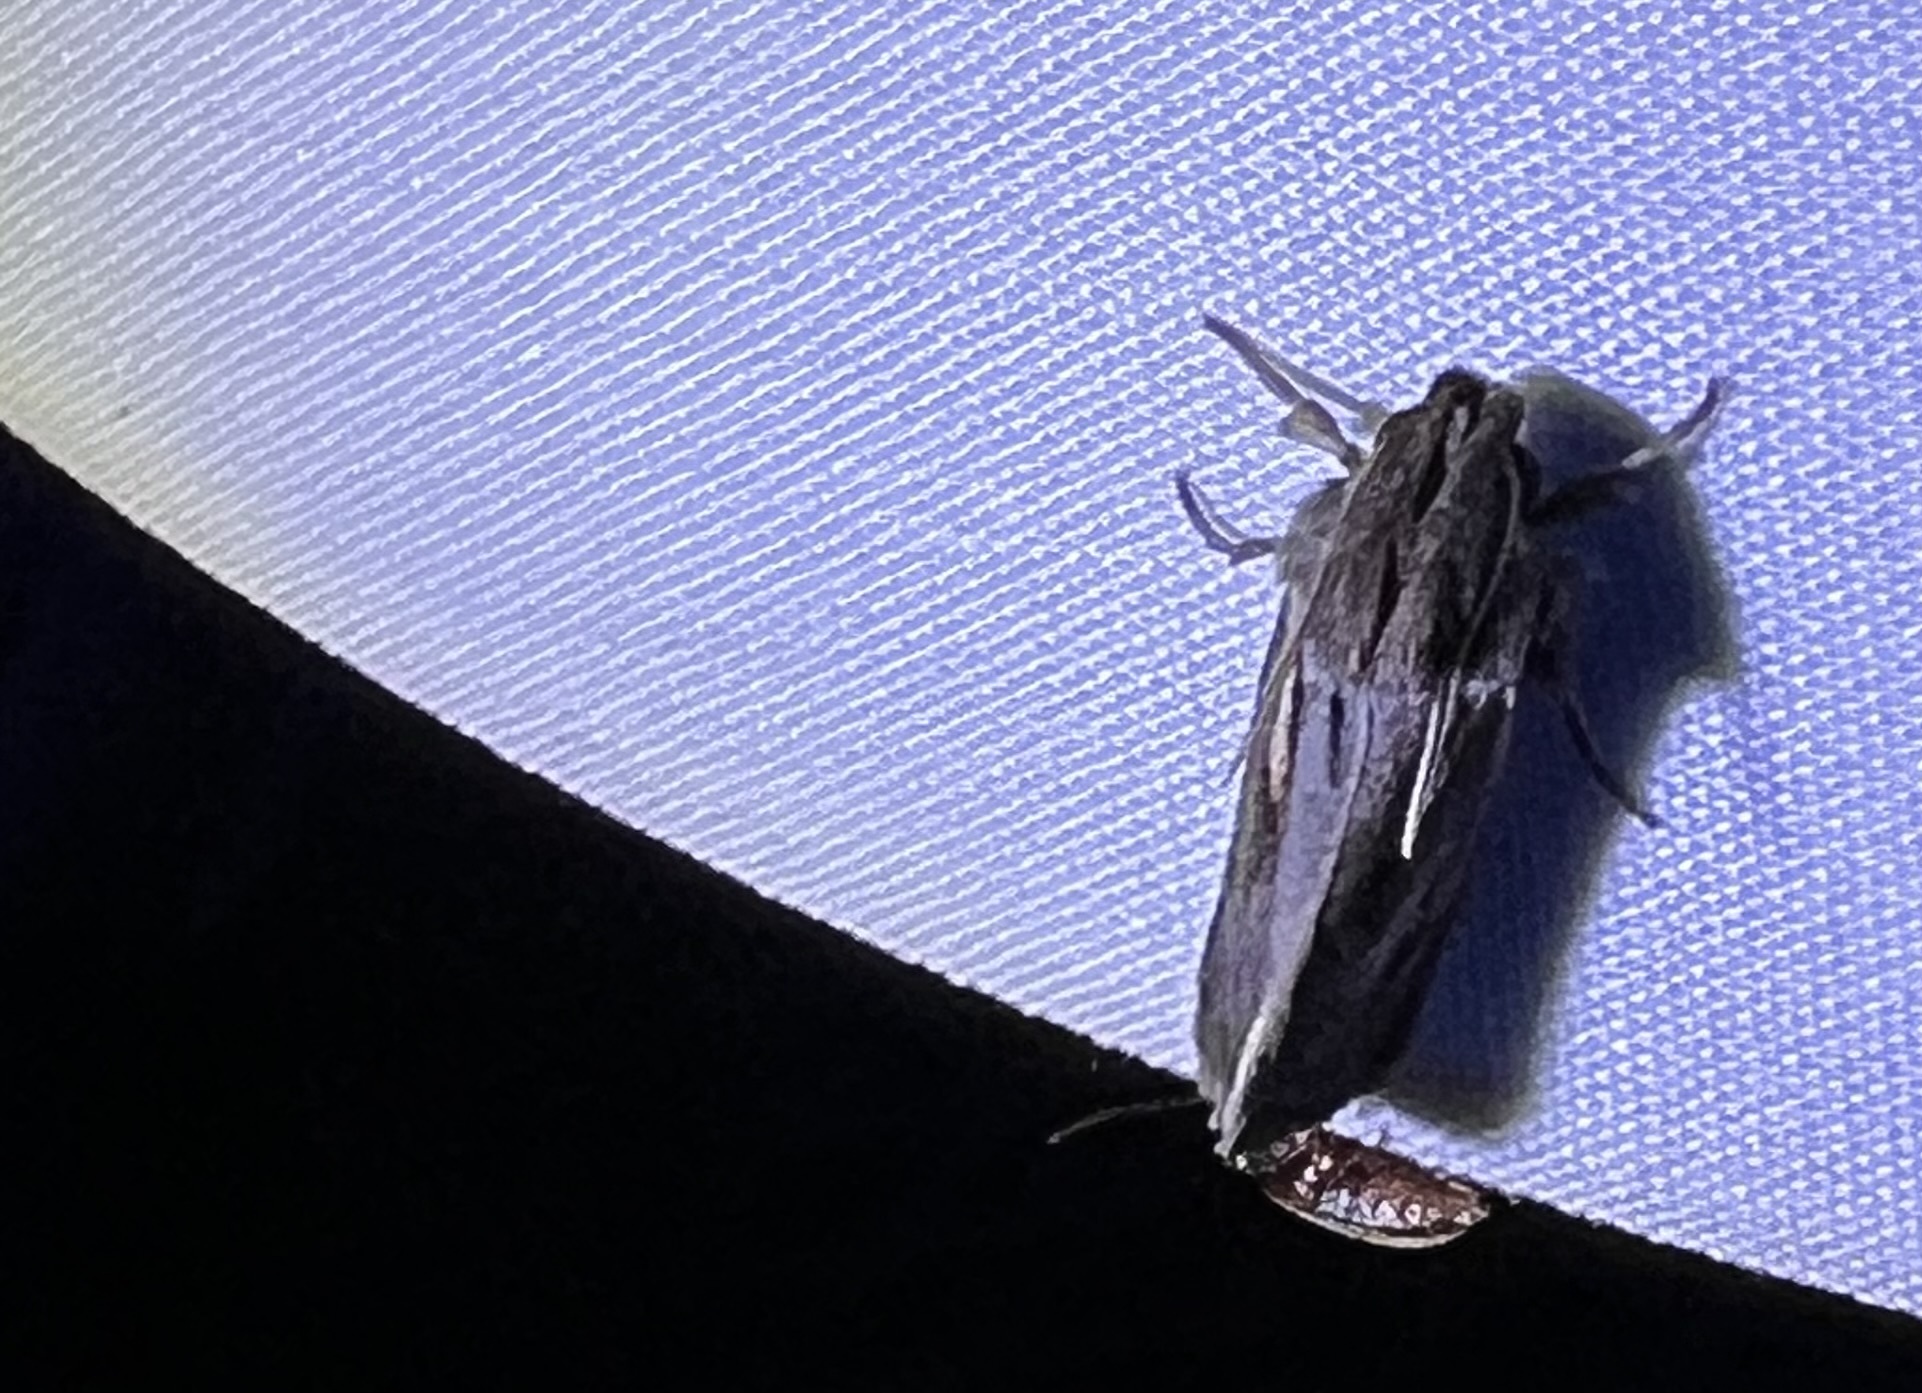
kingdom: Animalia
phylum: Arthropoda
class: Insecta
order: Lepidoptera
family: Tineidae
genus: Acrolophus
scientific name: Acrolophus popeanella
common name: Clemens' grass tubeworm moth
